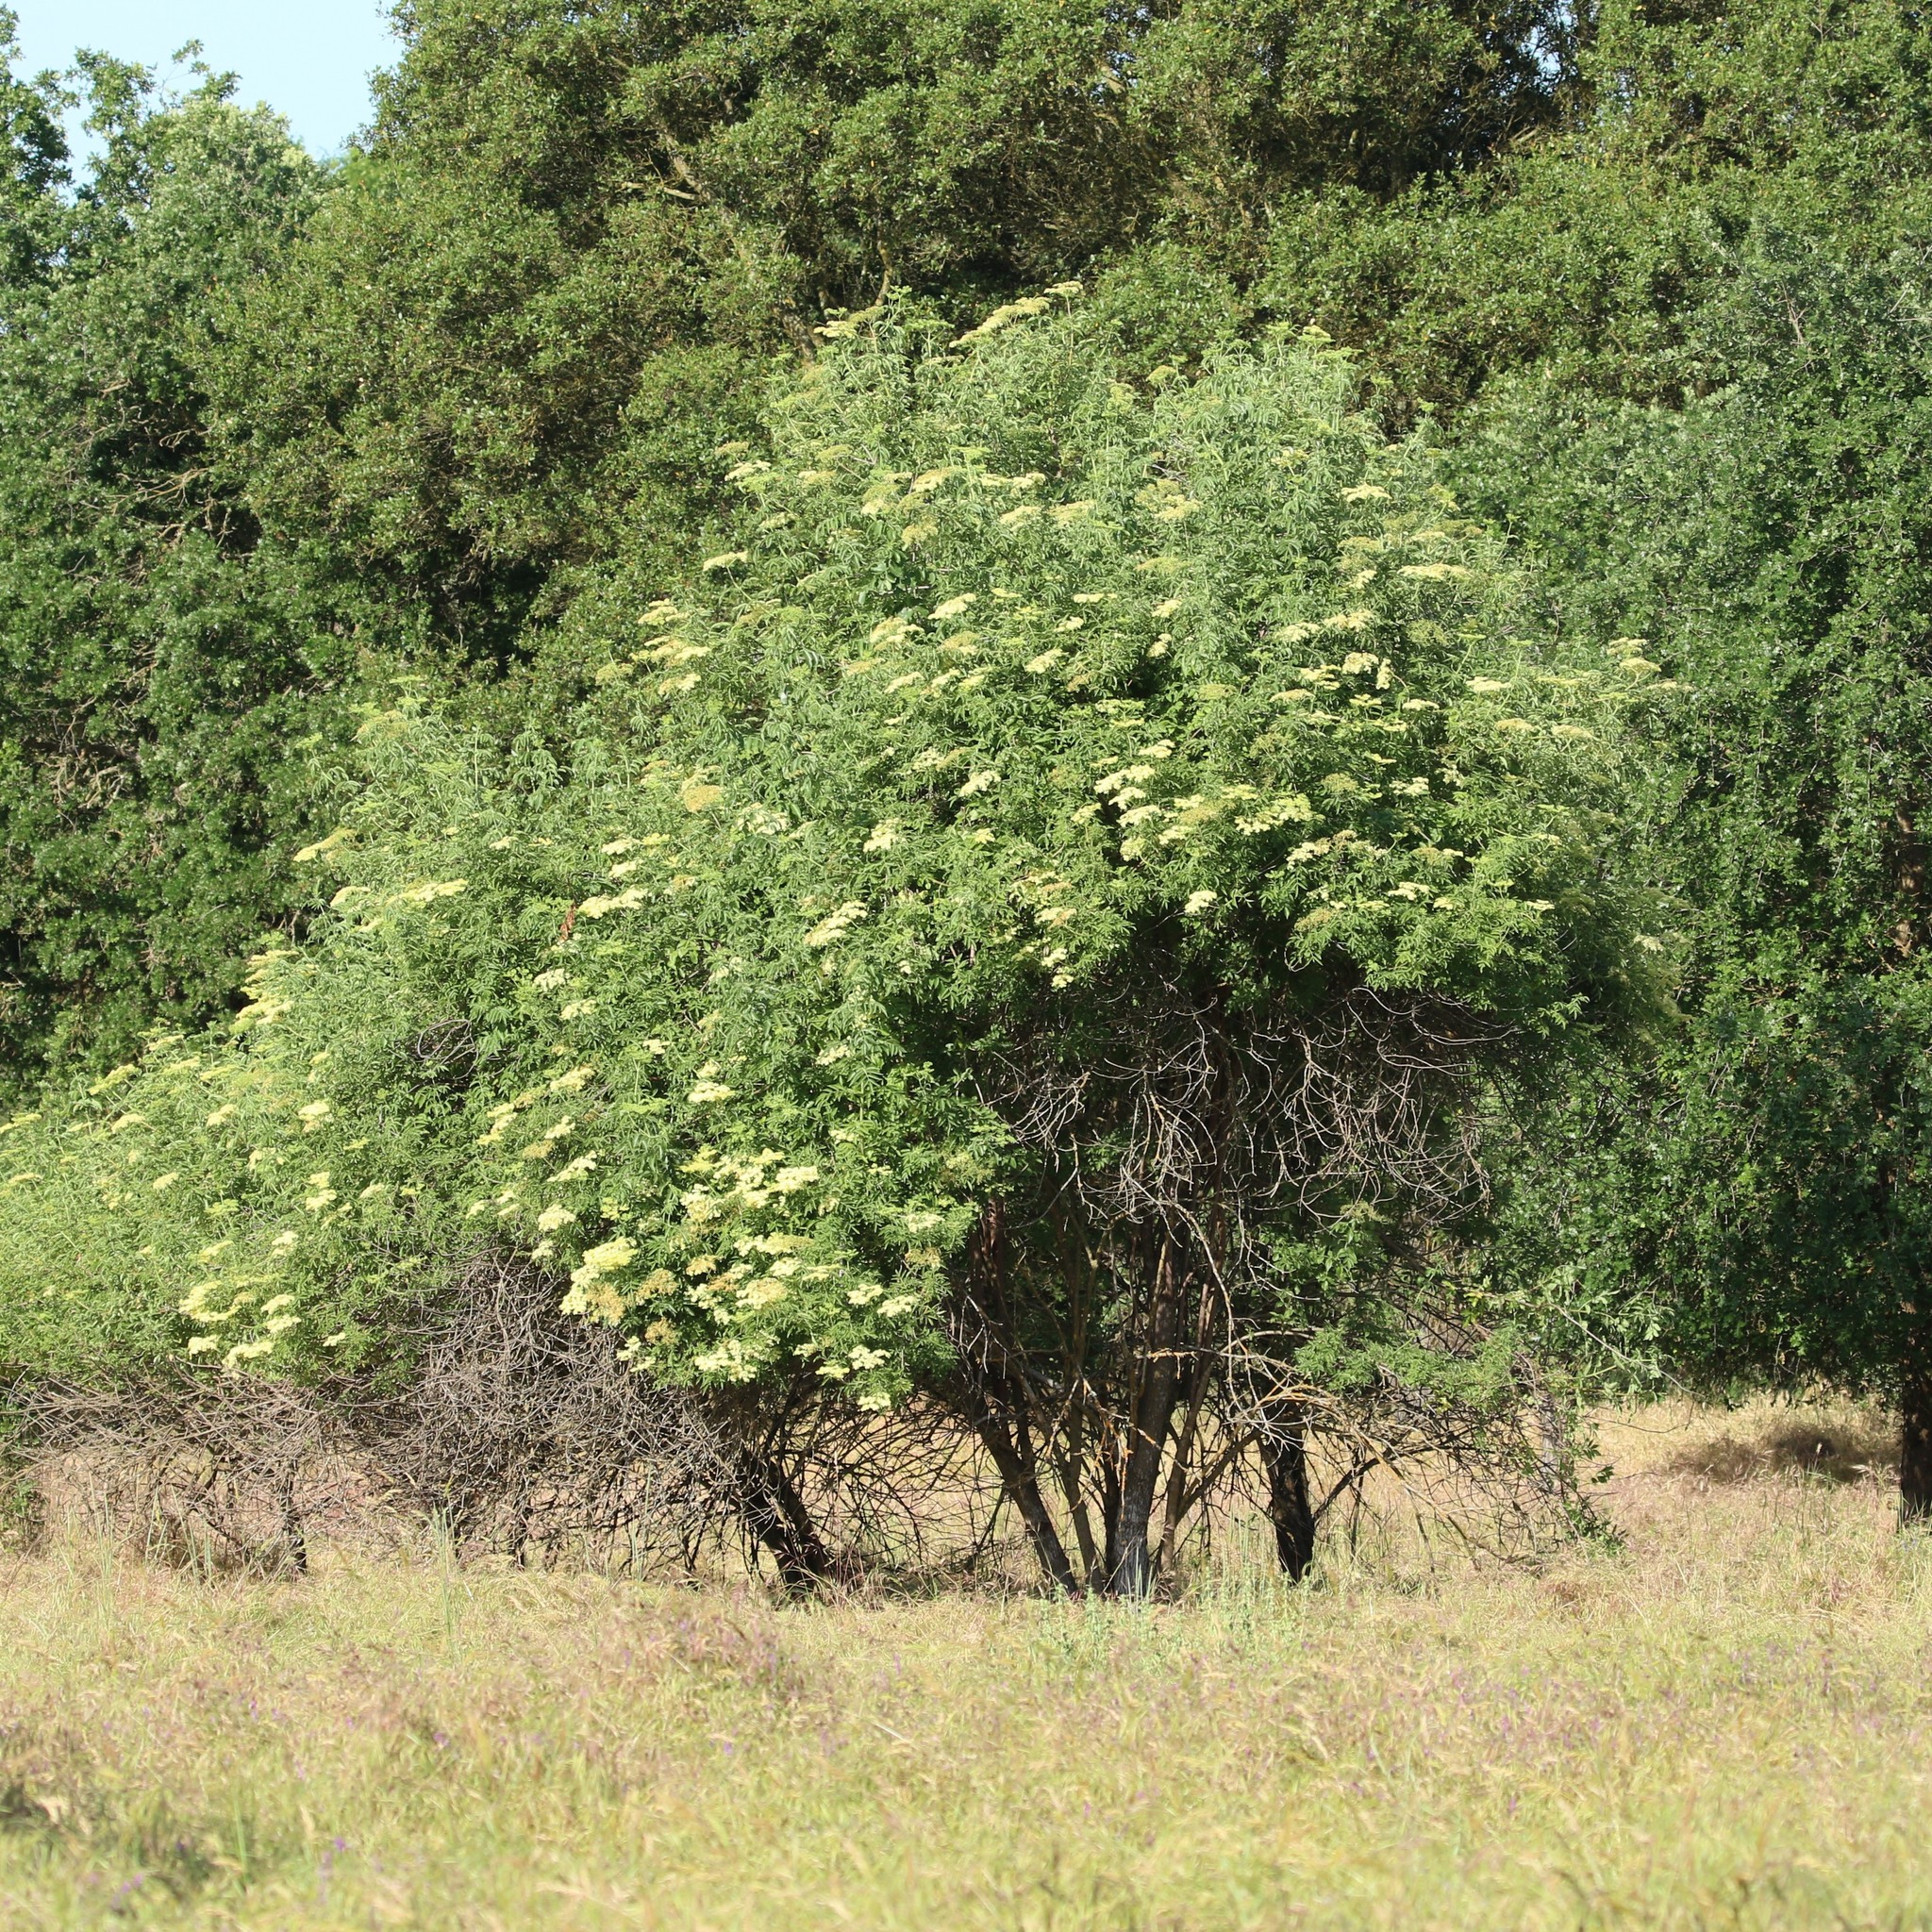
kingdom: Plantae
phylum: Tracheophyta
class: Magnoliopsida
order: Dipsacales
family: Viburnaceae
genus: Sambucus
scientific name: Sambucus cerulea
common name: Blue elder
